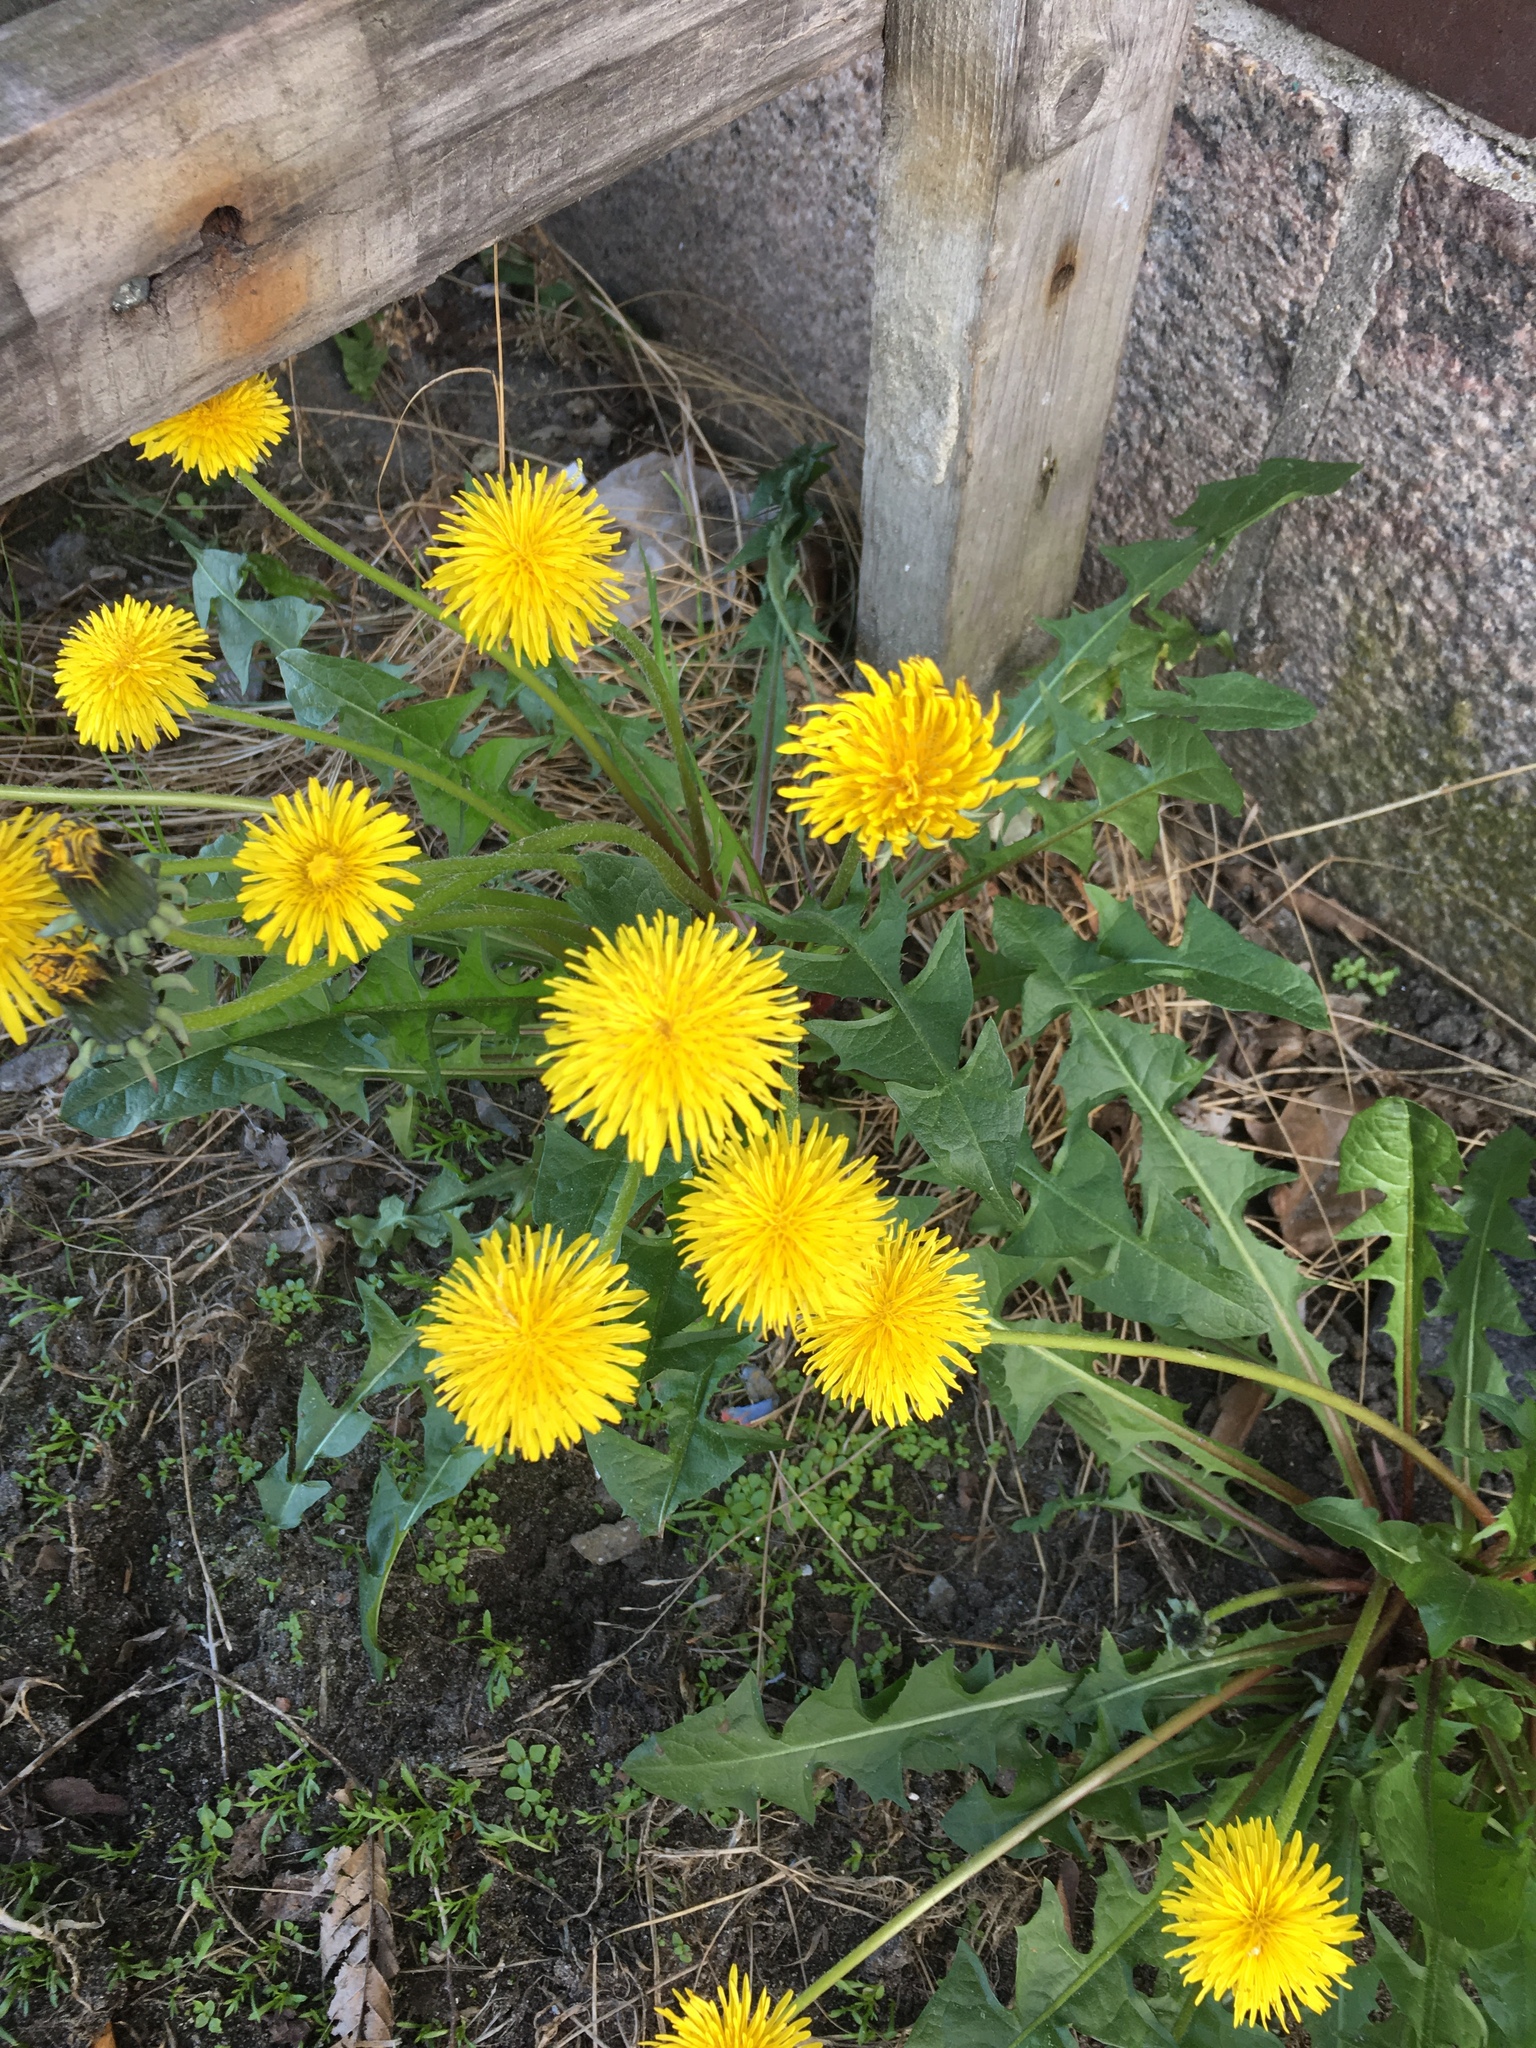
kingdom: Plantae
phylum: Tracheophyta
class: Magnoliopsida
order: Asterales
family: Asteraceae
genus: Taraxacum
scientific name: Taraxacum officinale
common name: Common dandelion
